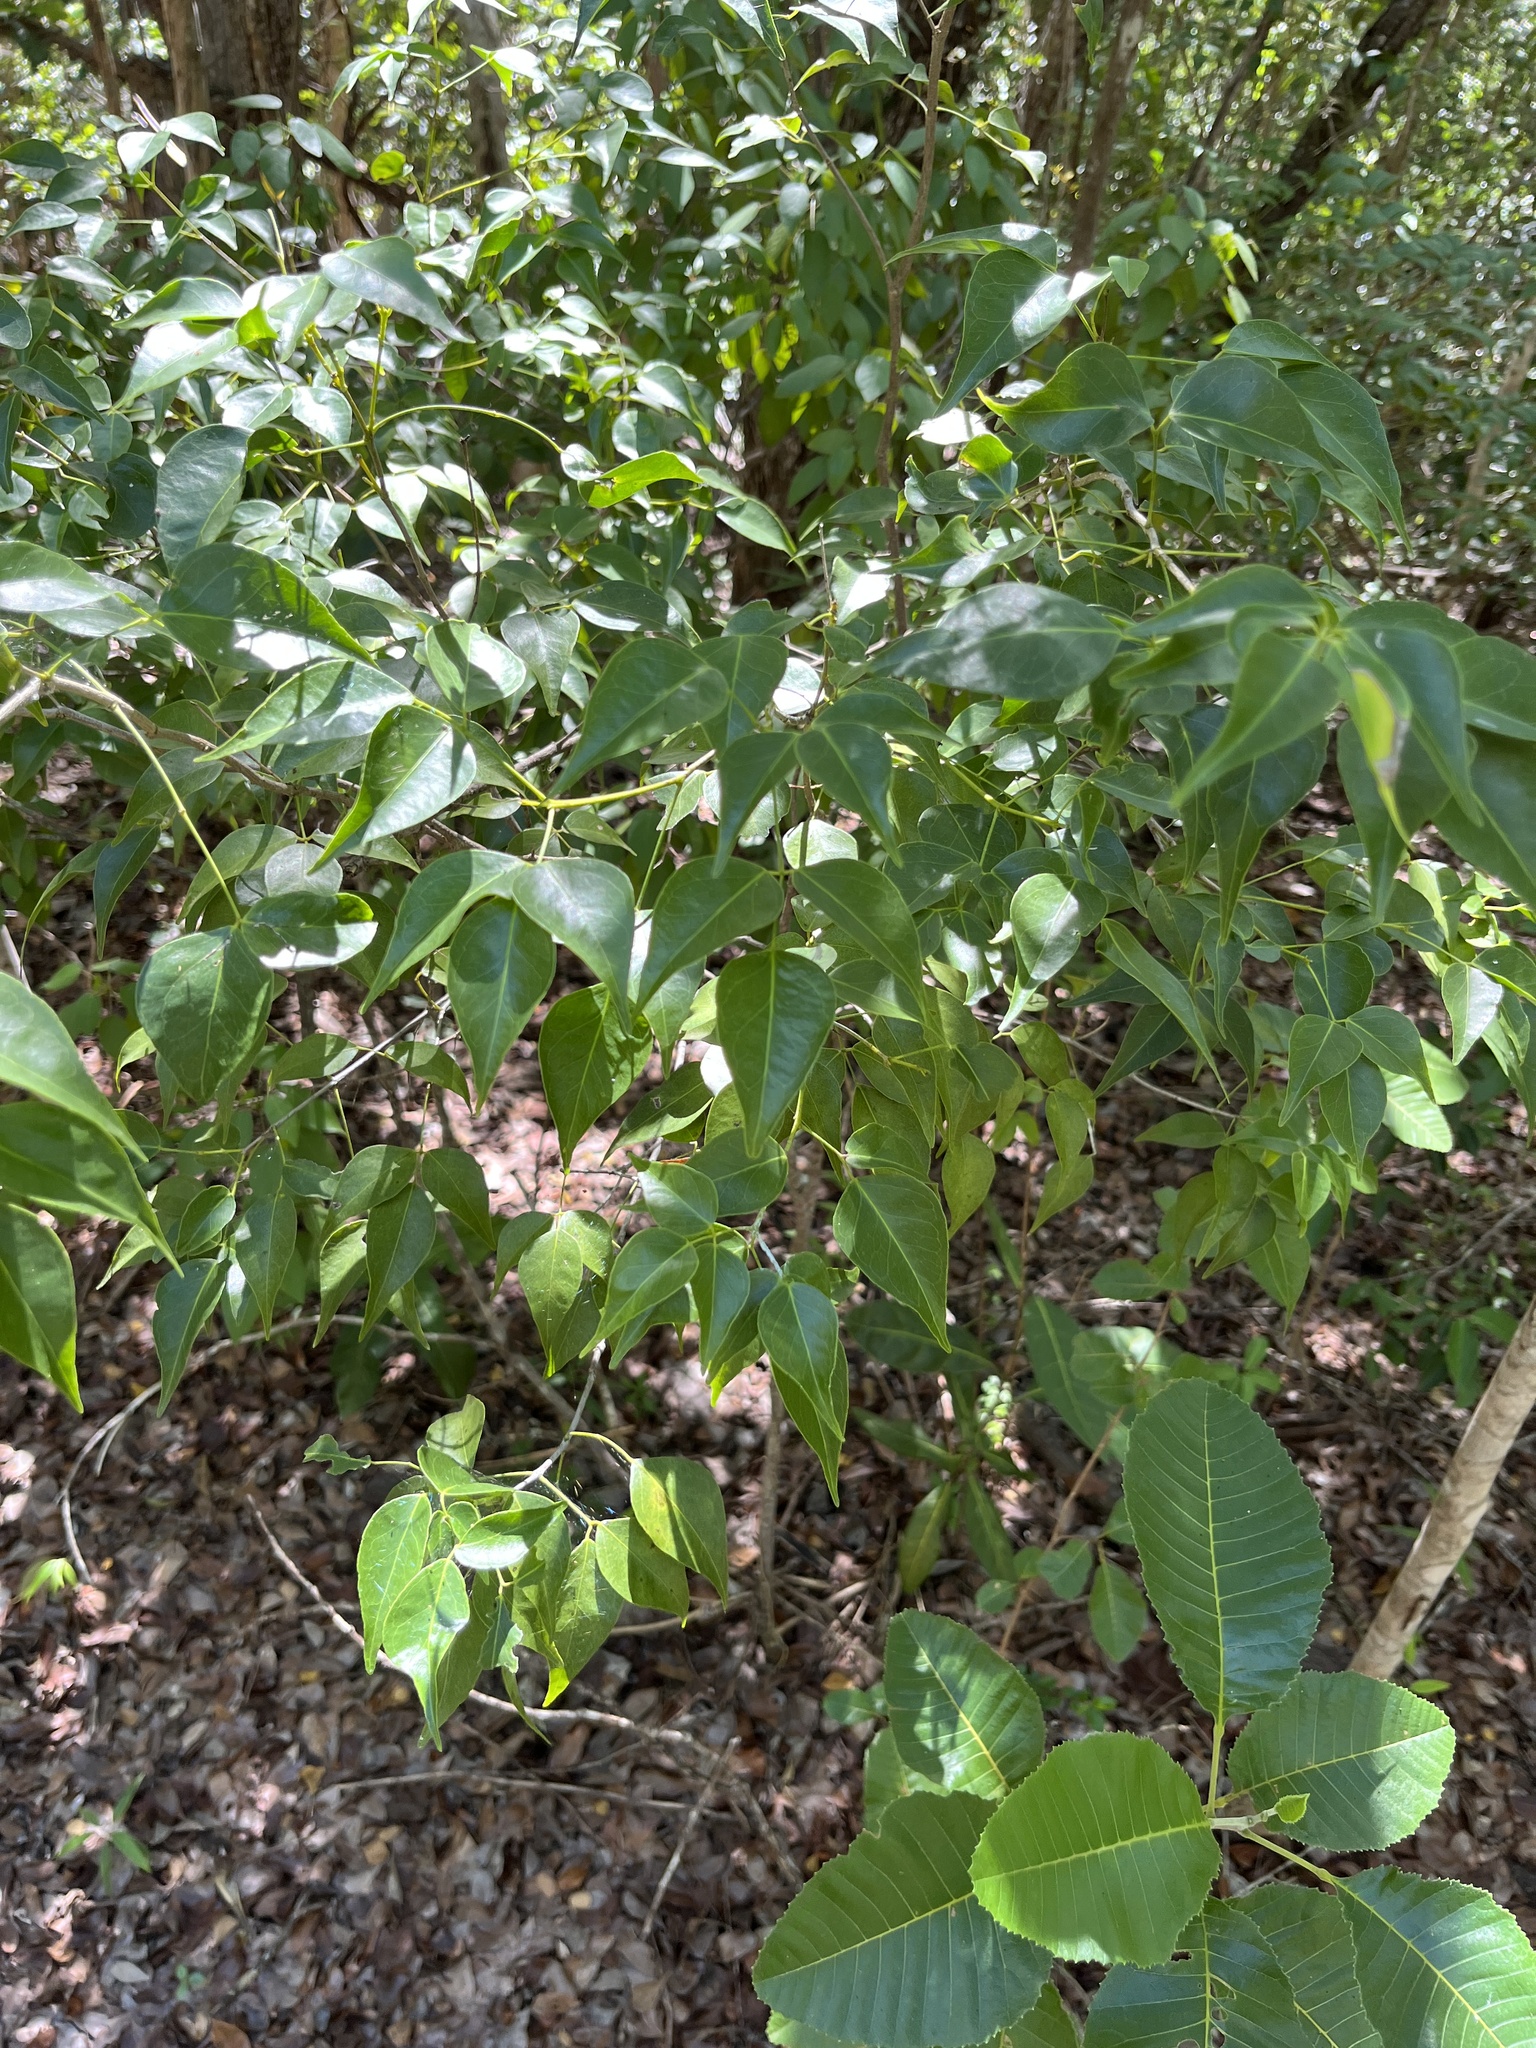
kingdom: Plantae
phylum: Tracheophyta
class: Magnoliopsida
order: Sapindales
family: Rutaceae
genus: Amyris
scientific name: Amyris elemifera
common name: Sea amyris
